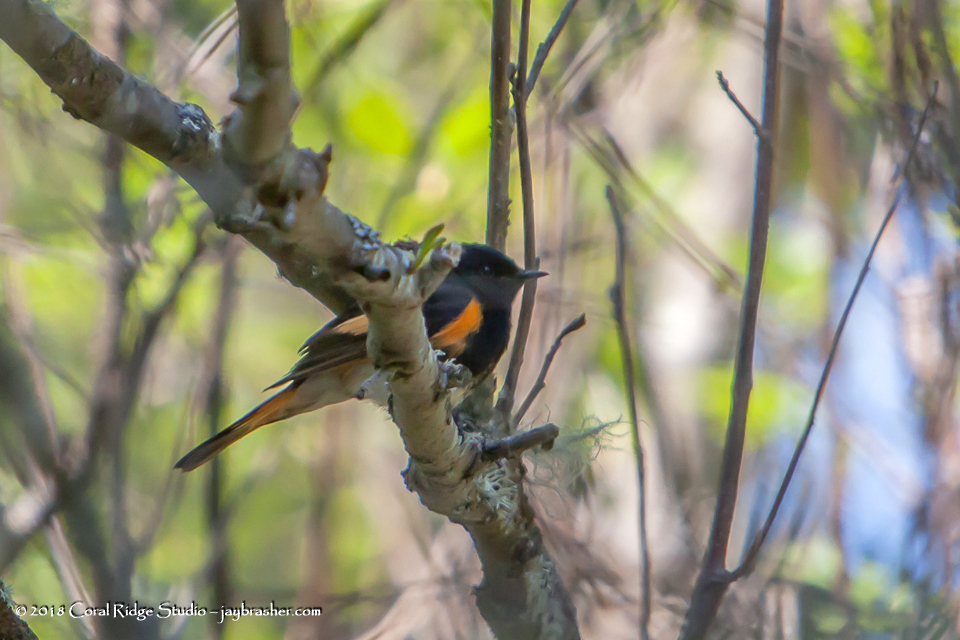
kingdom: Animalia
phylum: Chordata
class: Aves
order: Passeriformes
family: Parulidae
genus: Setophaga
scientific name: Setophaga ruticilla
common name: American redstart
